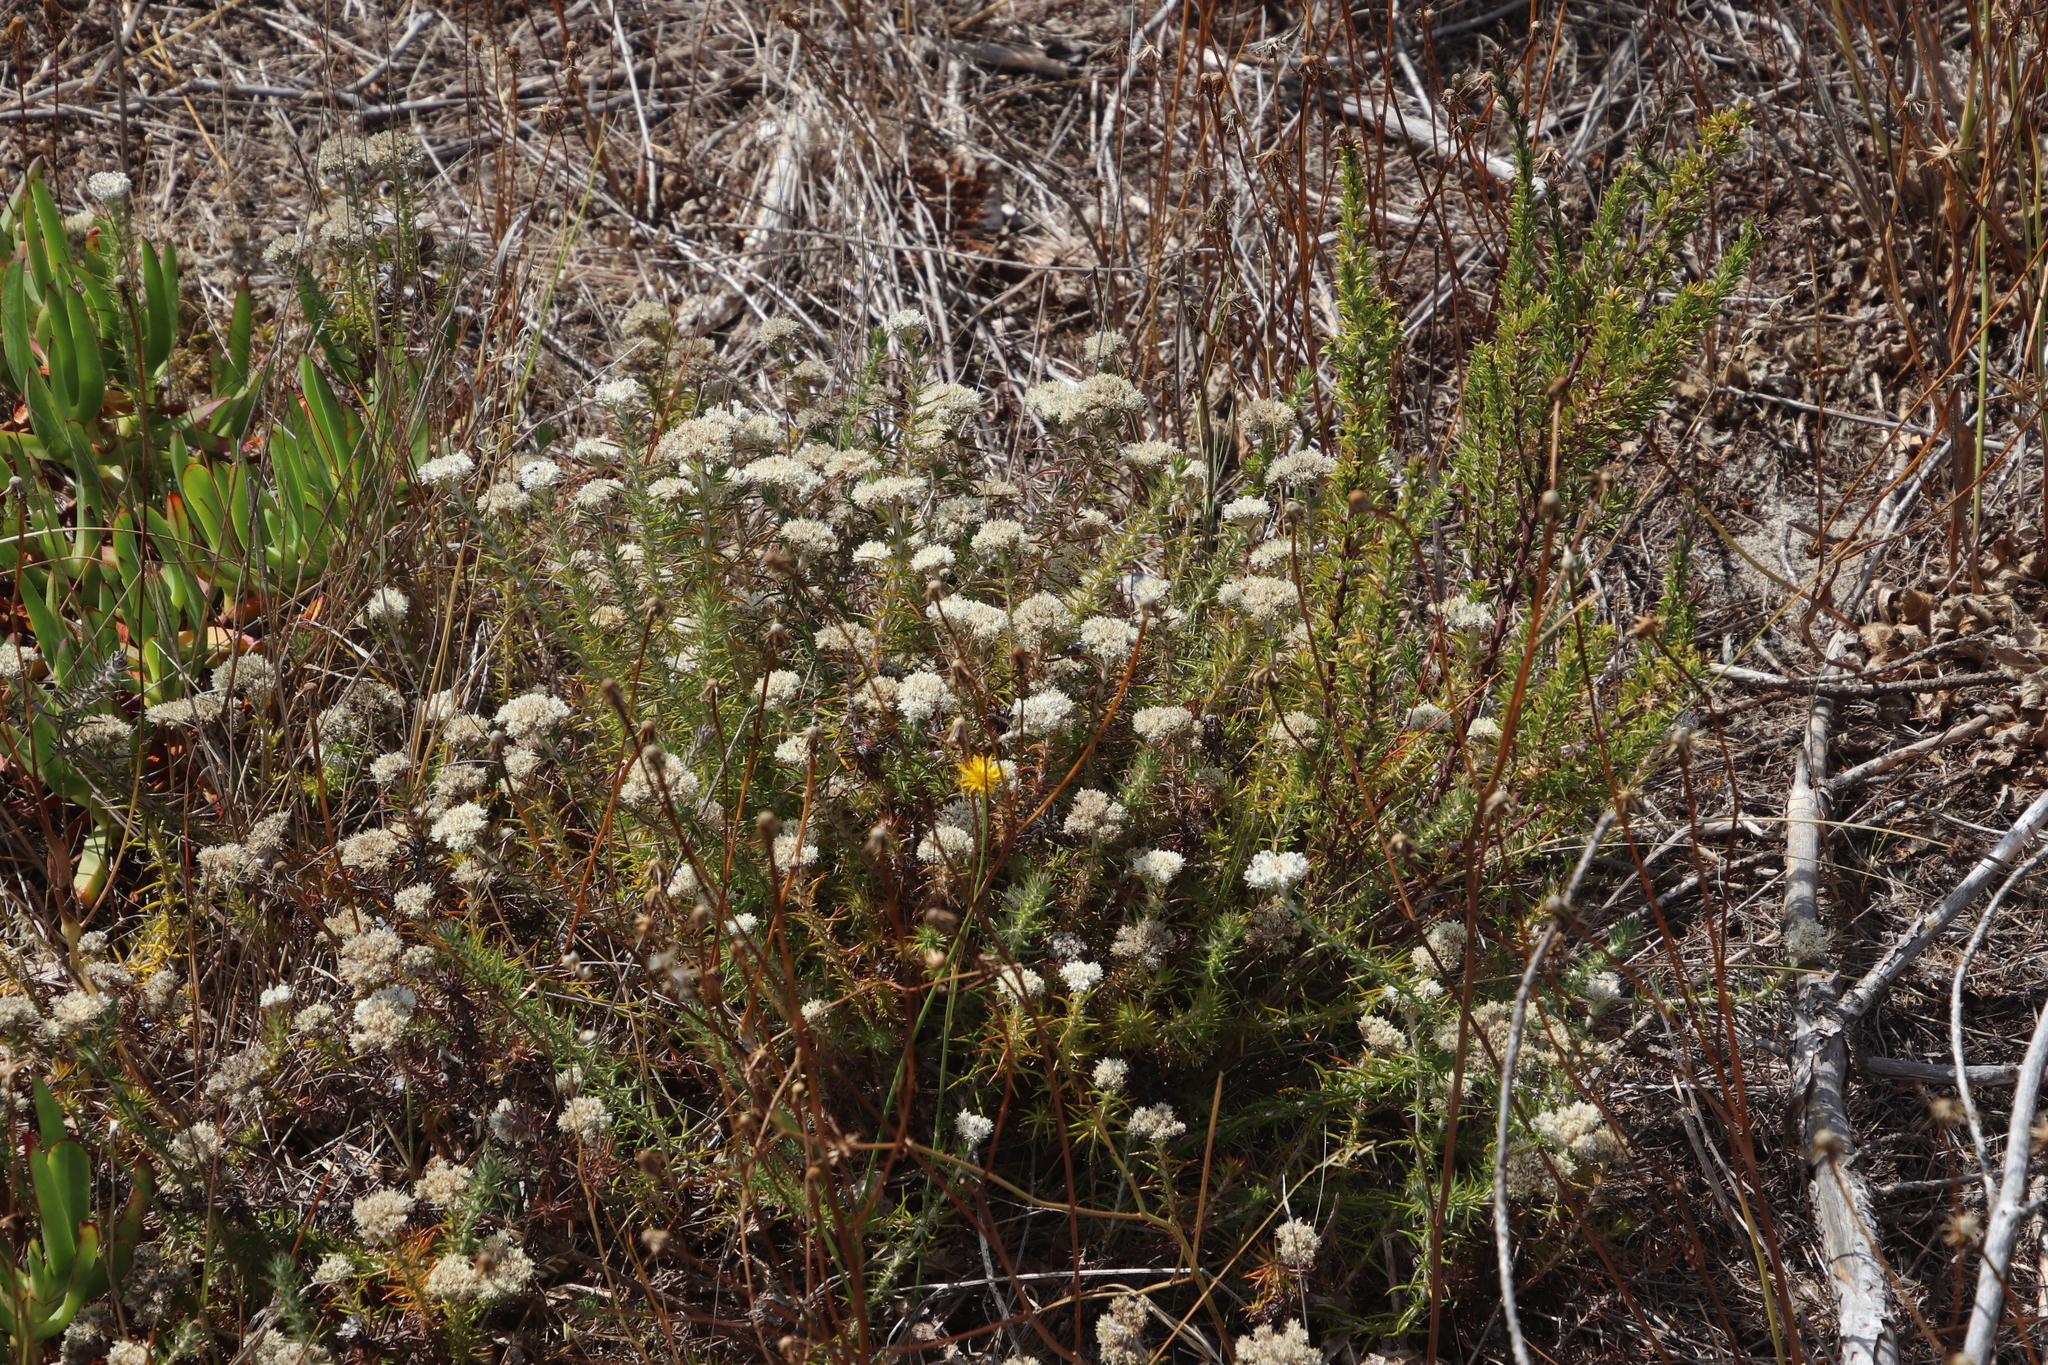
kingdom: Plantae
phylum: Tracheophyta
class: Magnoliopsida
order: Asterales
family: Asteraceae
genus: Metalasia
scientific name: Metalasia pulchella
